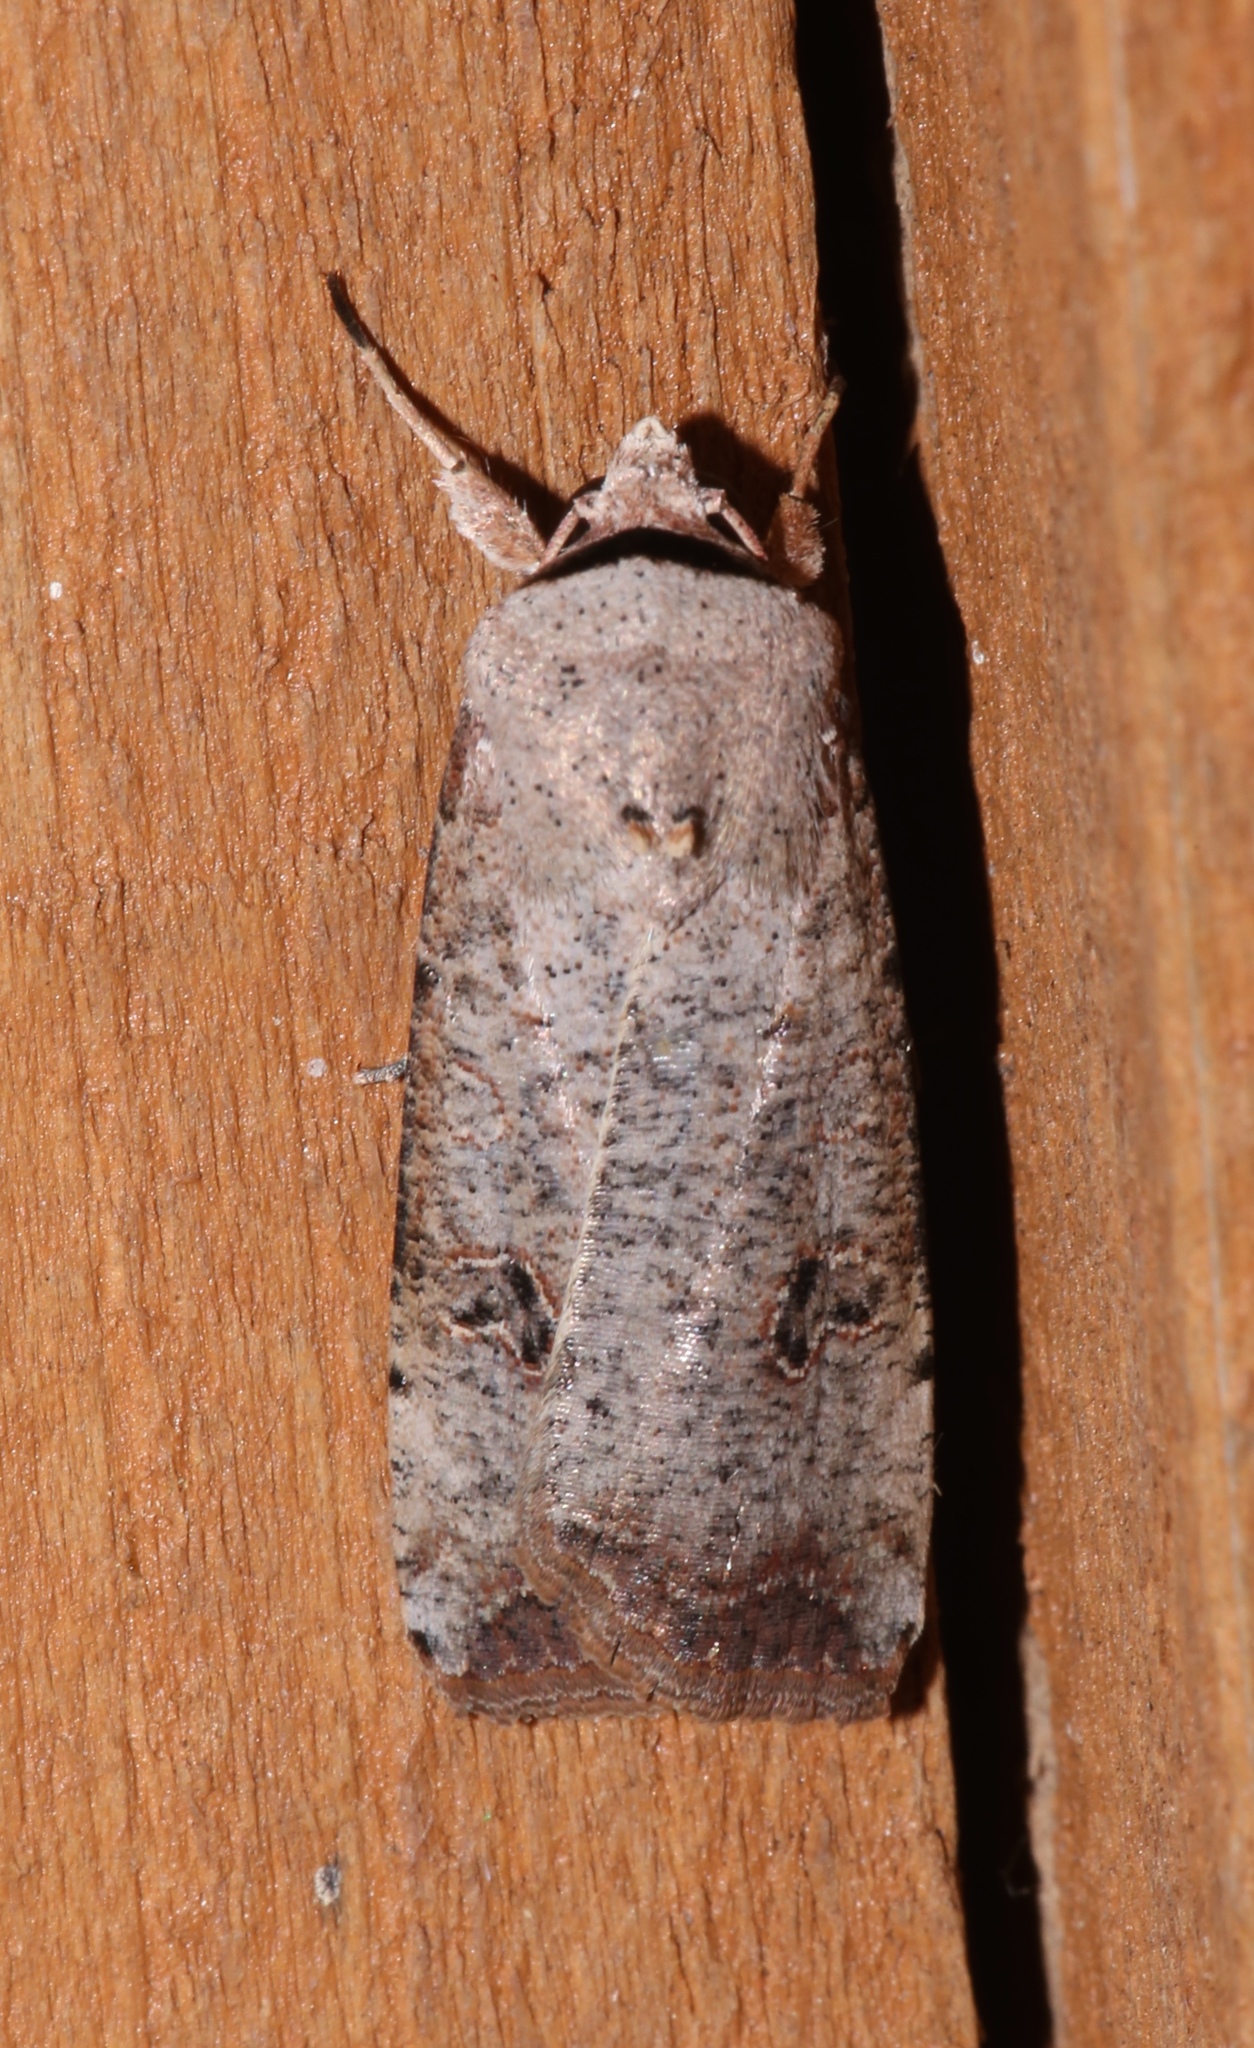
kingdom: Animalia
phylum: Arthropoda
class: Insecta
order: Lepidoptera
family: Noctuidae
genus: Anicla
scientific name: Anicla infecta
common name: Green cutworm
